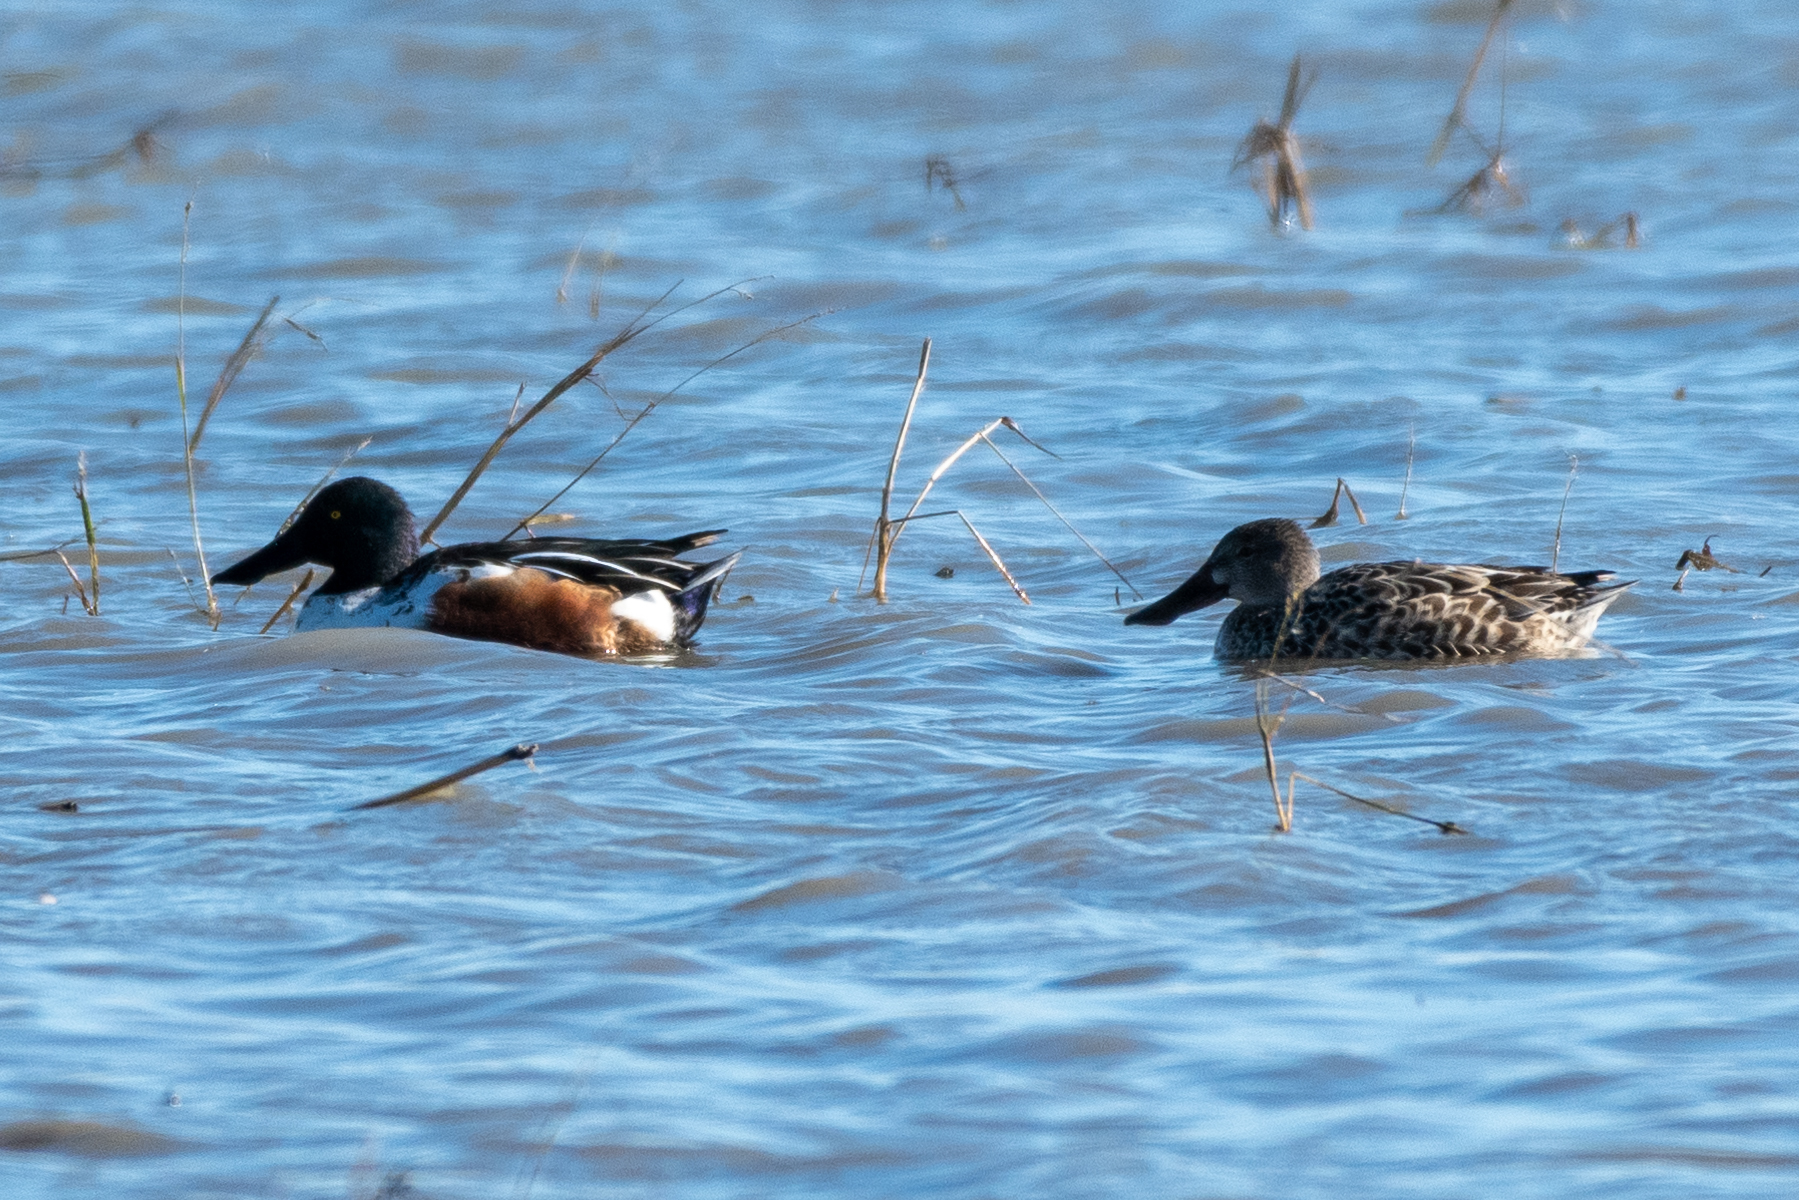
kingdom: Animalia
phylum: Chordata
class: Aves
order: Anseriformes
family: Anatidae
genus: Spatula
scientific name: Spatula clypeata
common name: Northern shoveler
